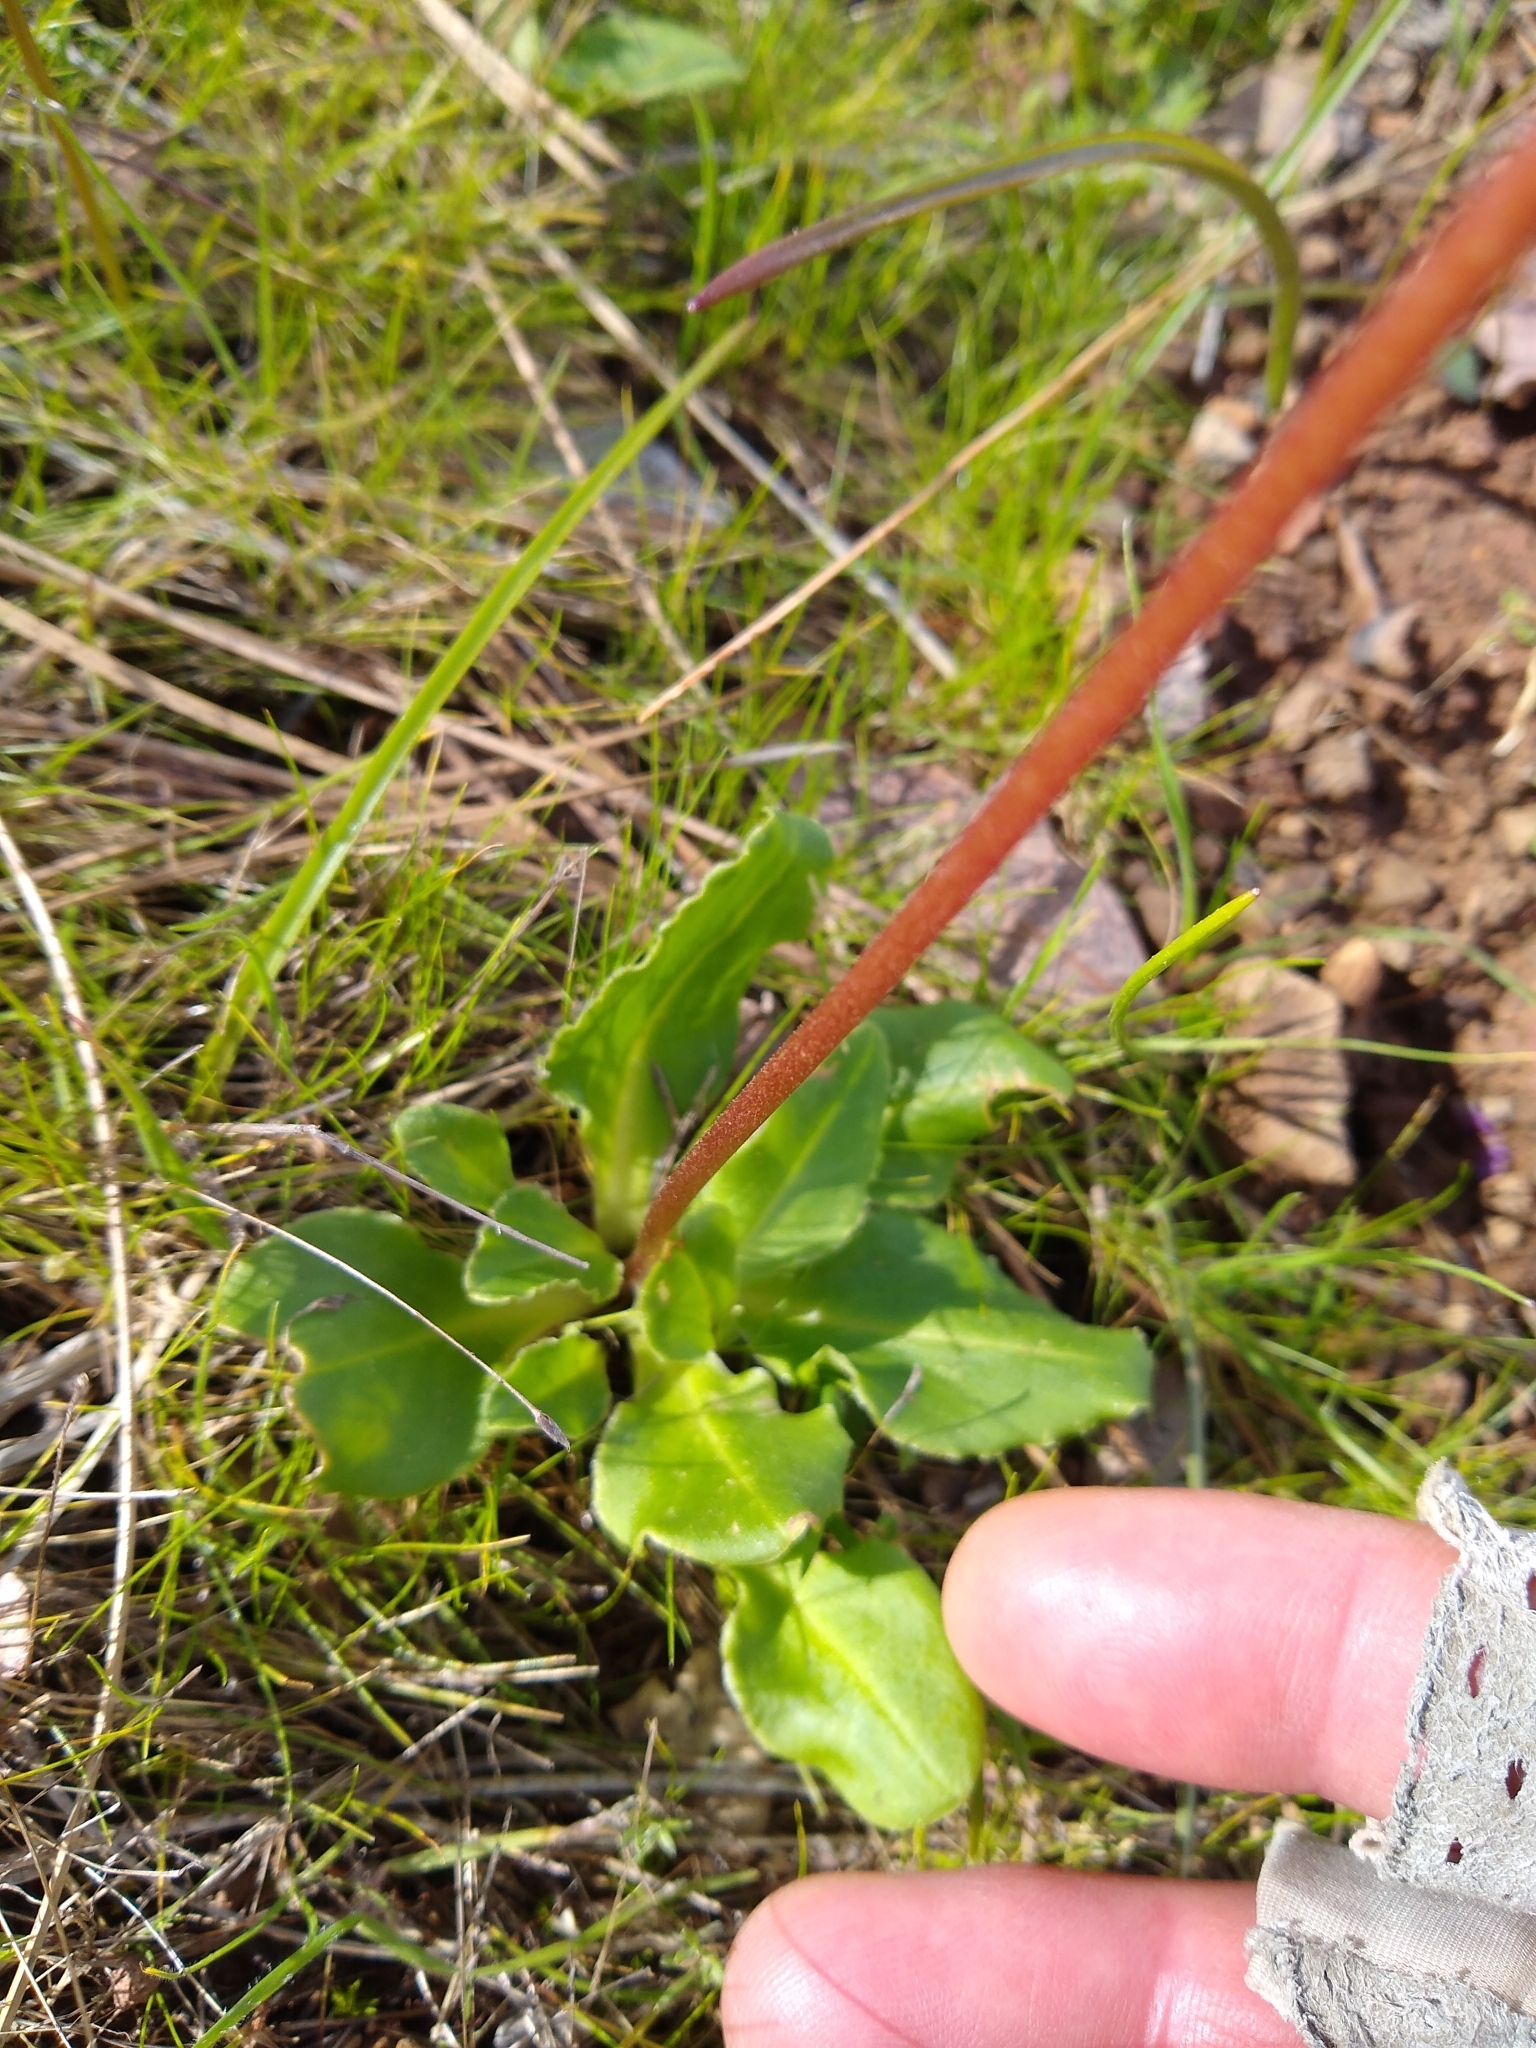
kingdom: Plantae
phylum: Tracheophyta
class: Magnoliopsida
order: Ericales
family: Primulaceae
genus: Dodecatheon
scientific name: Dodecatheon hendersonii
